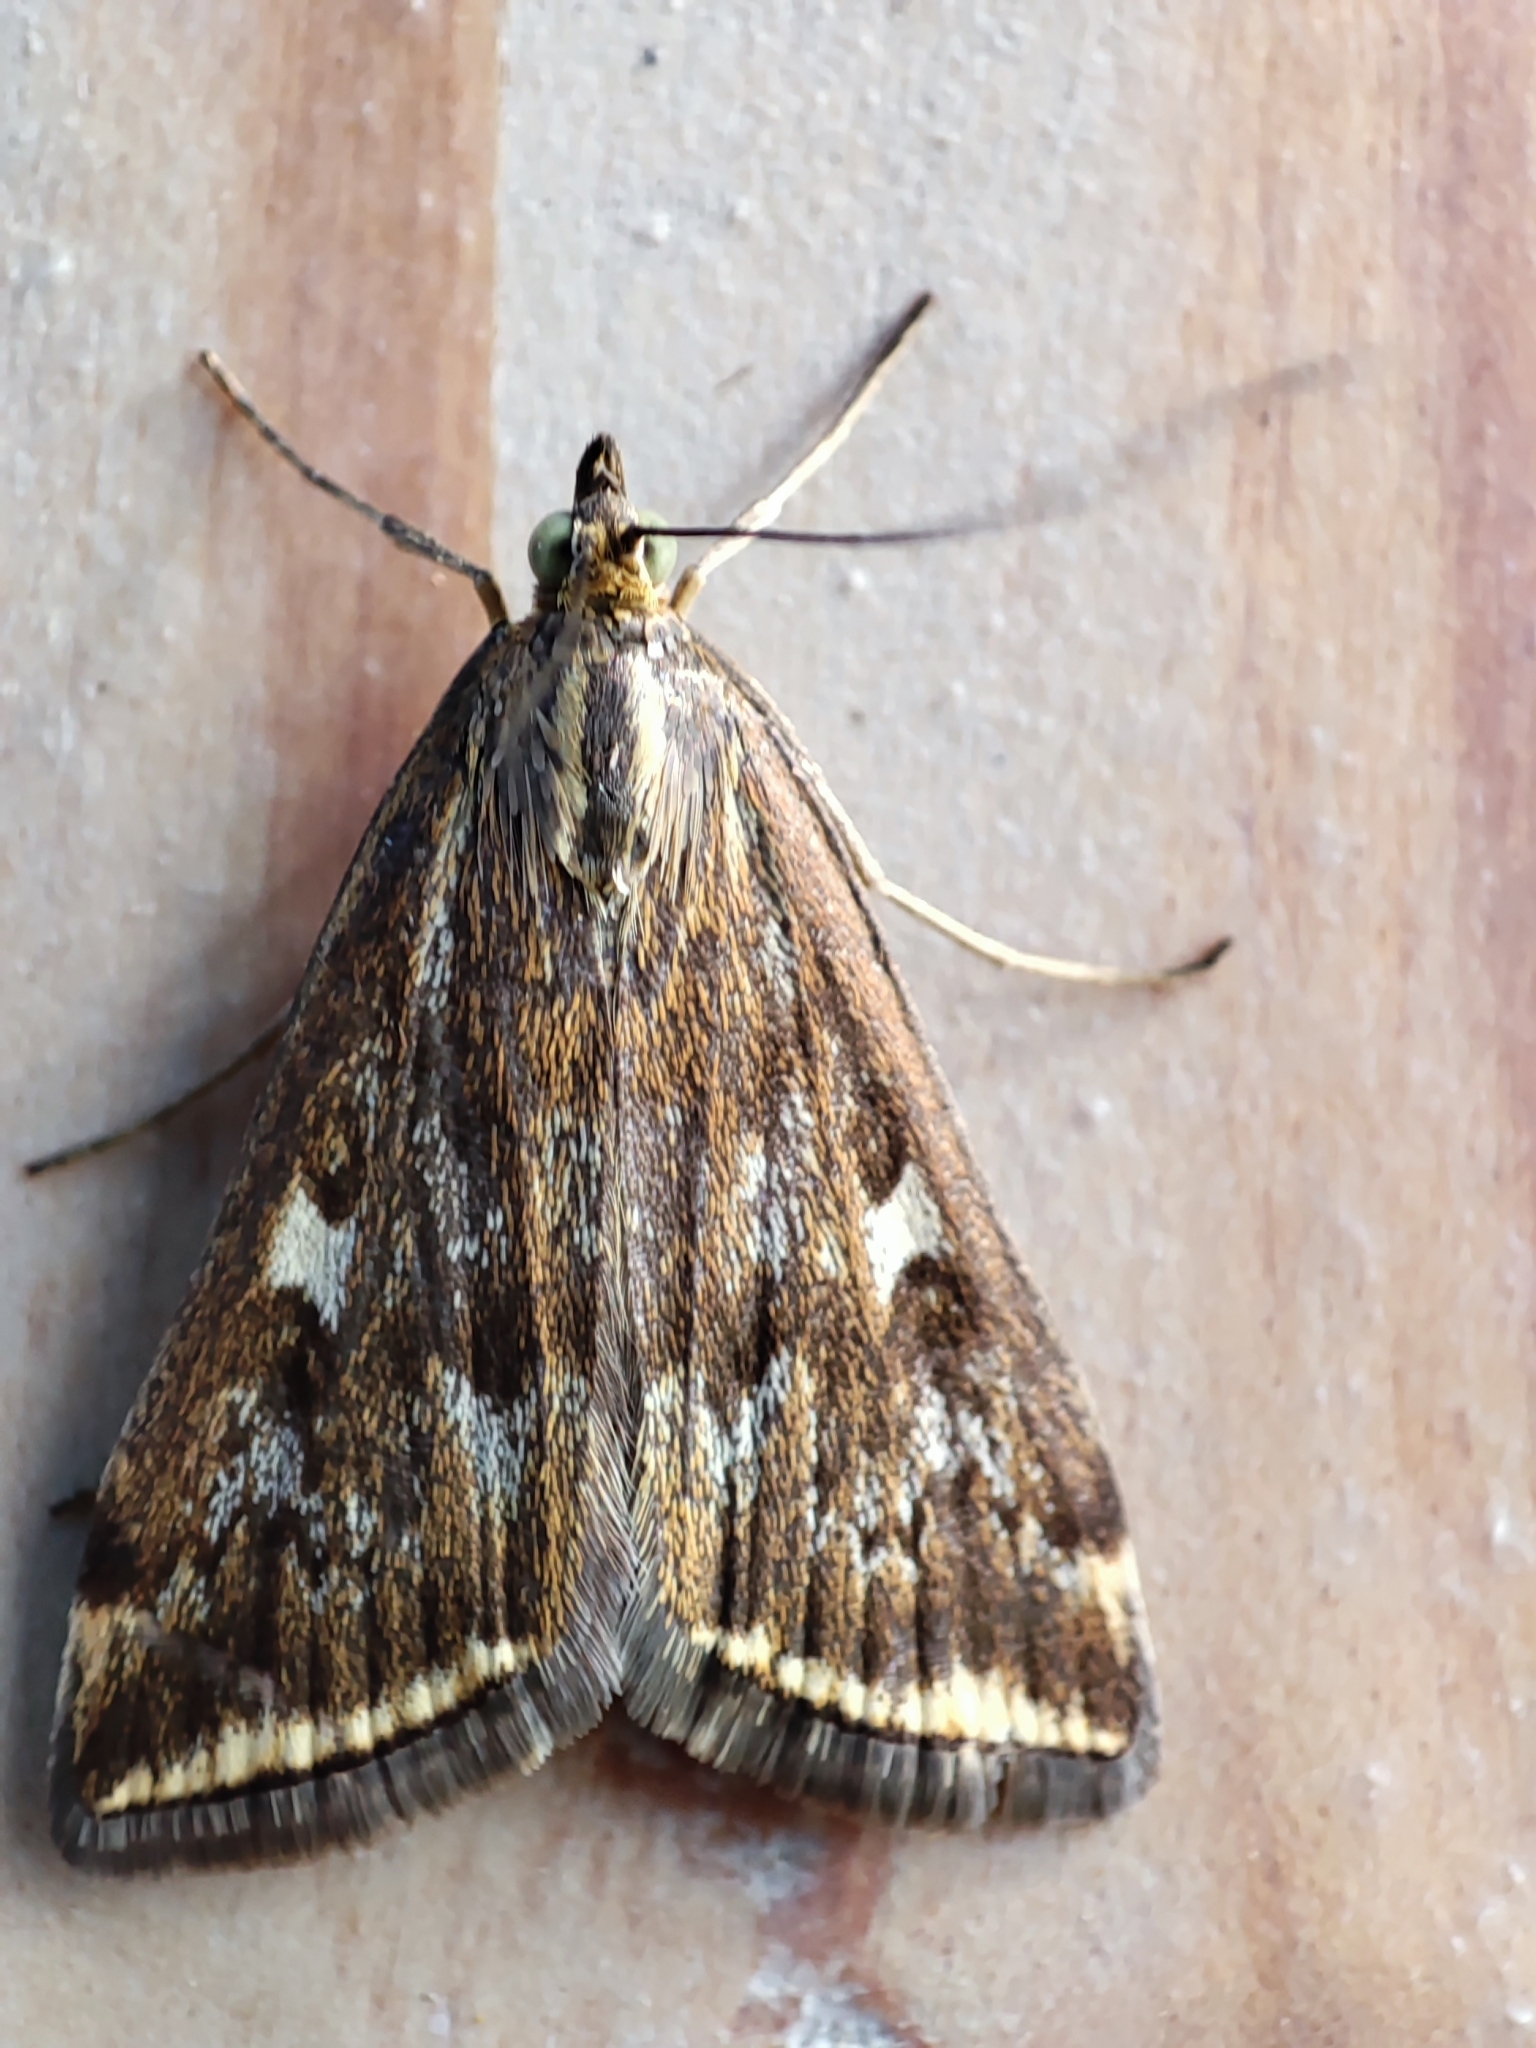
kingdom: Animalia
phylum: Arthropoda
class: Insecta
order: Lepidoptera
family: Crambidae
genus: Loxostege
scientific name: Loxostege sticticalis
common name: Crambid moth
